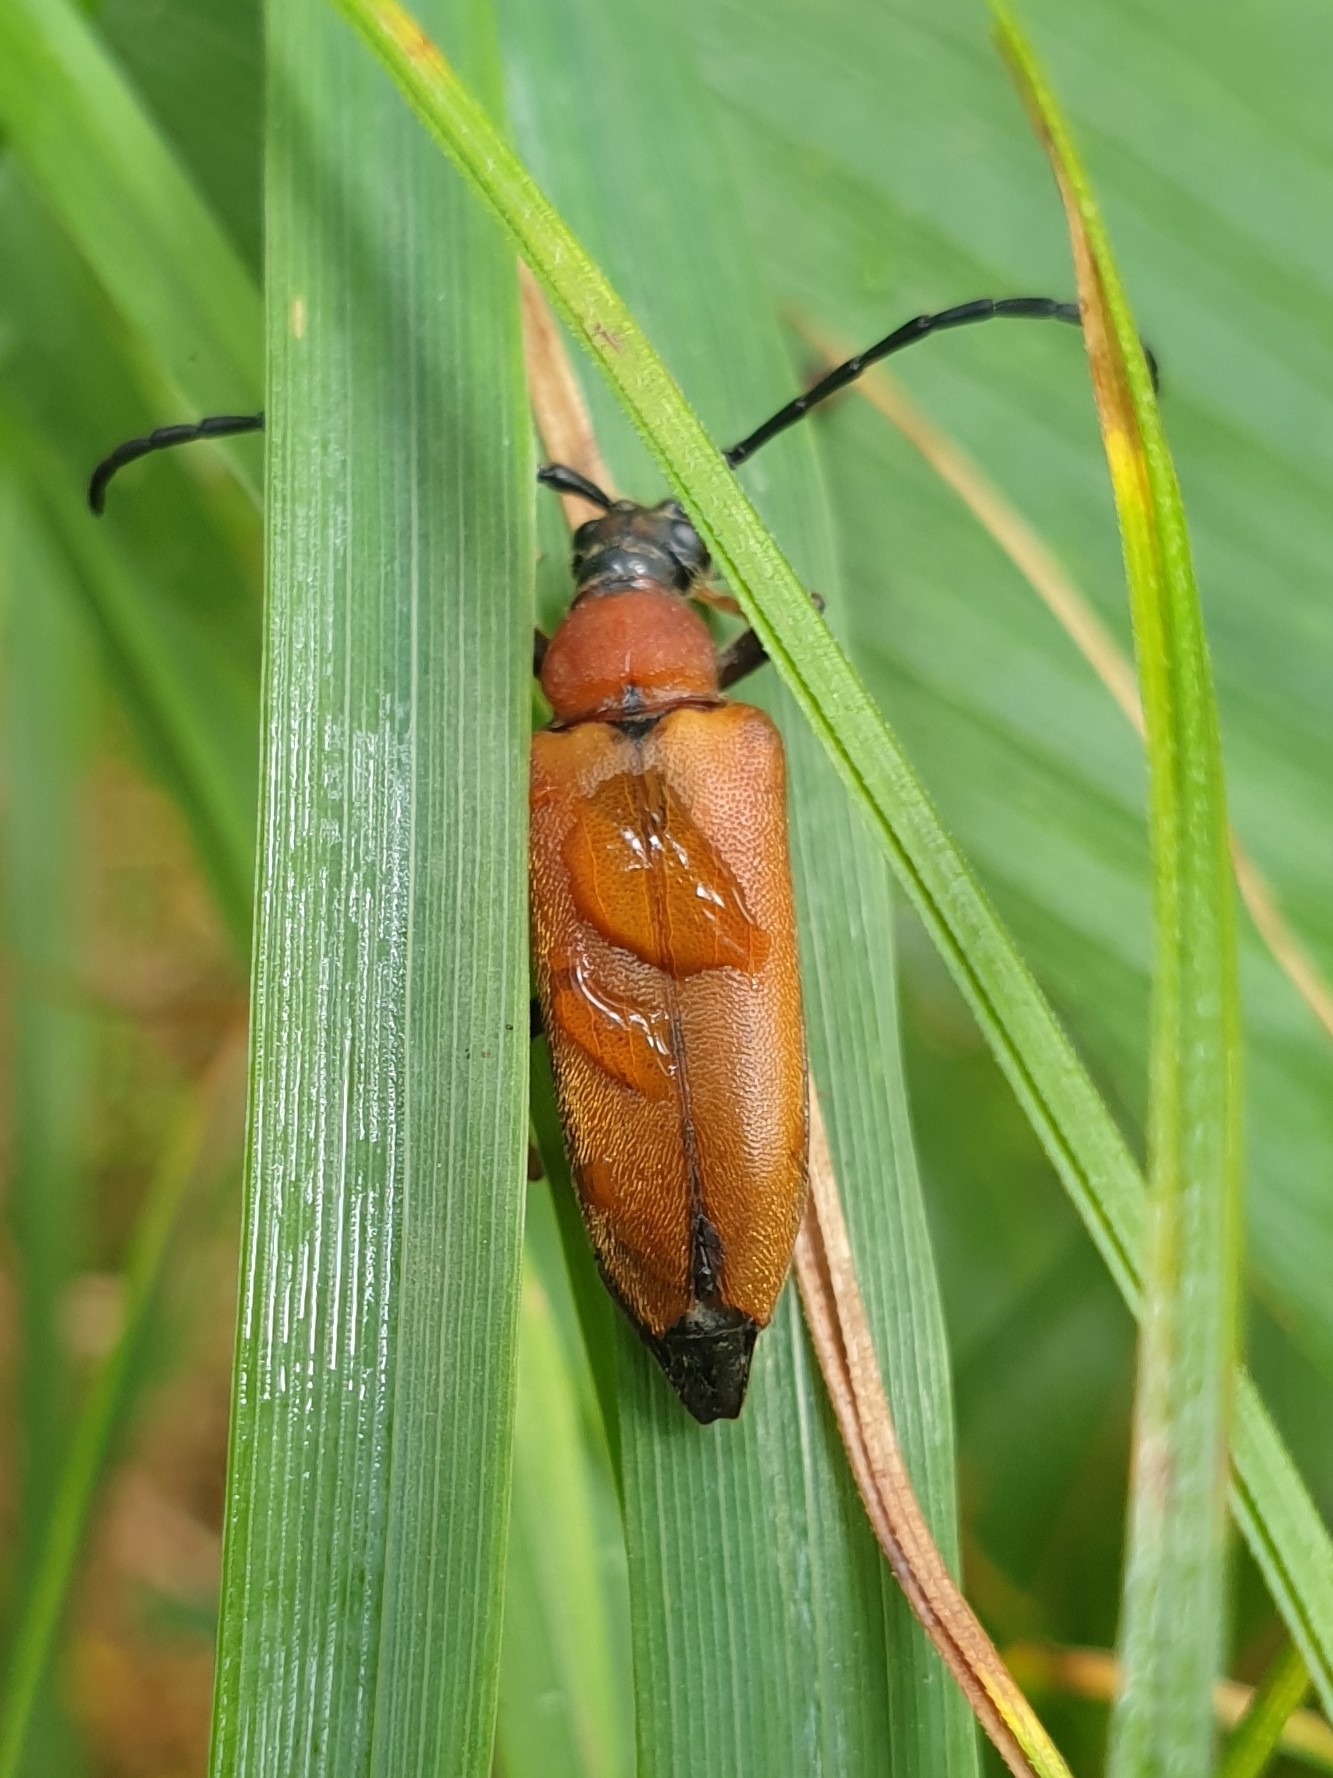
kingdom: Animalia
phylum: Arthropoda
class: Insecta
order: Coleoptera
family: Cerambycidae
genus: Stictoleptura
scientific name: Stictoleptura rubra
